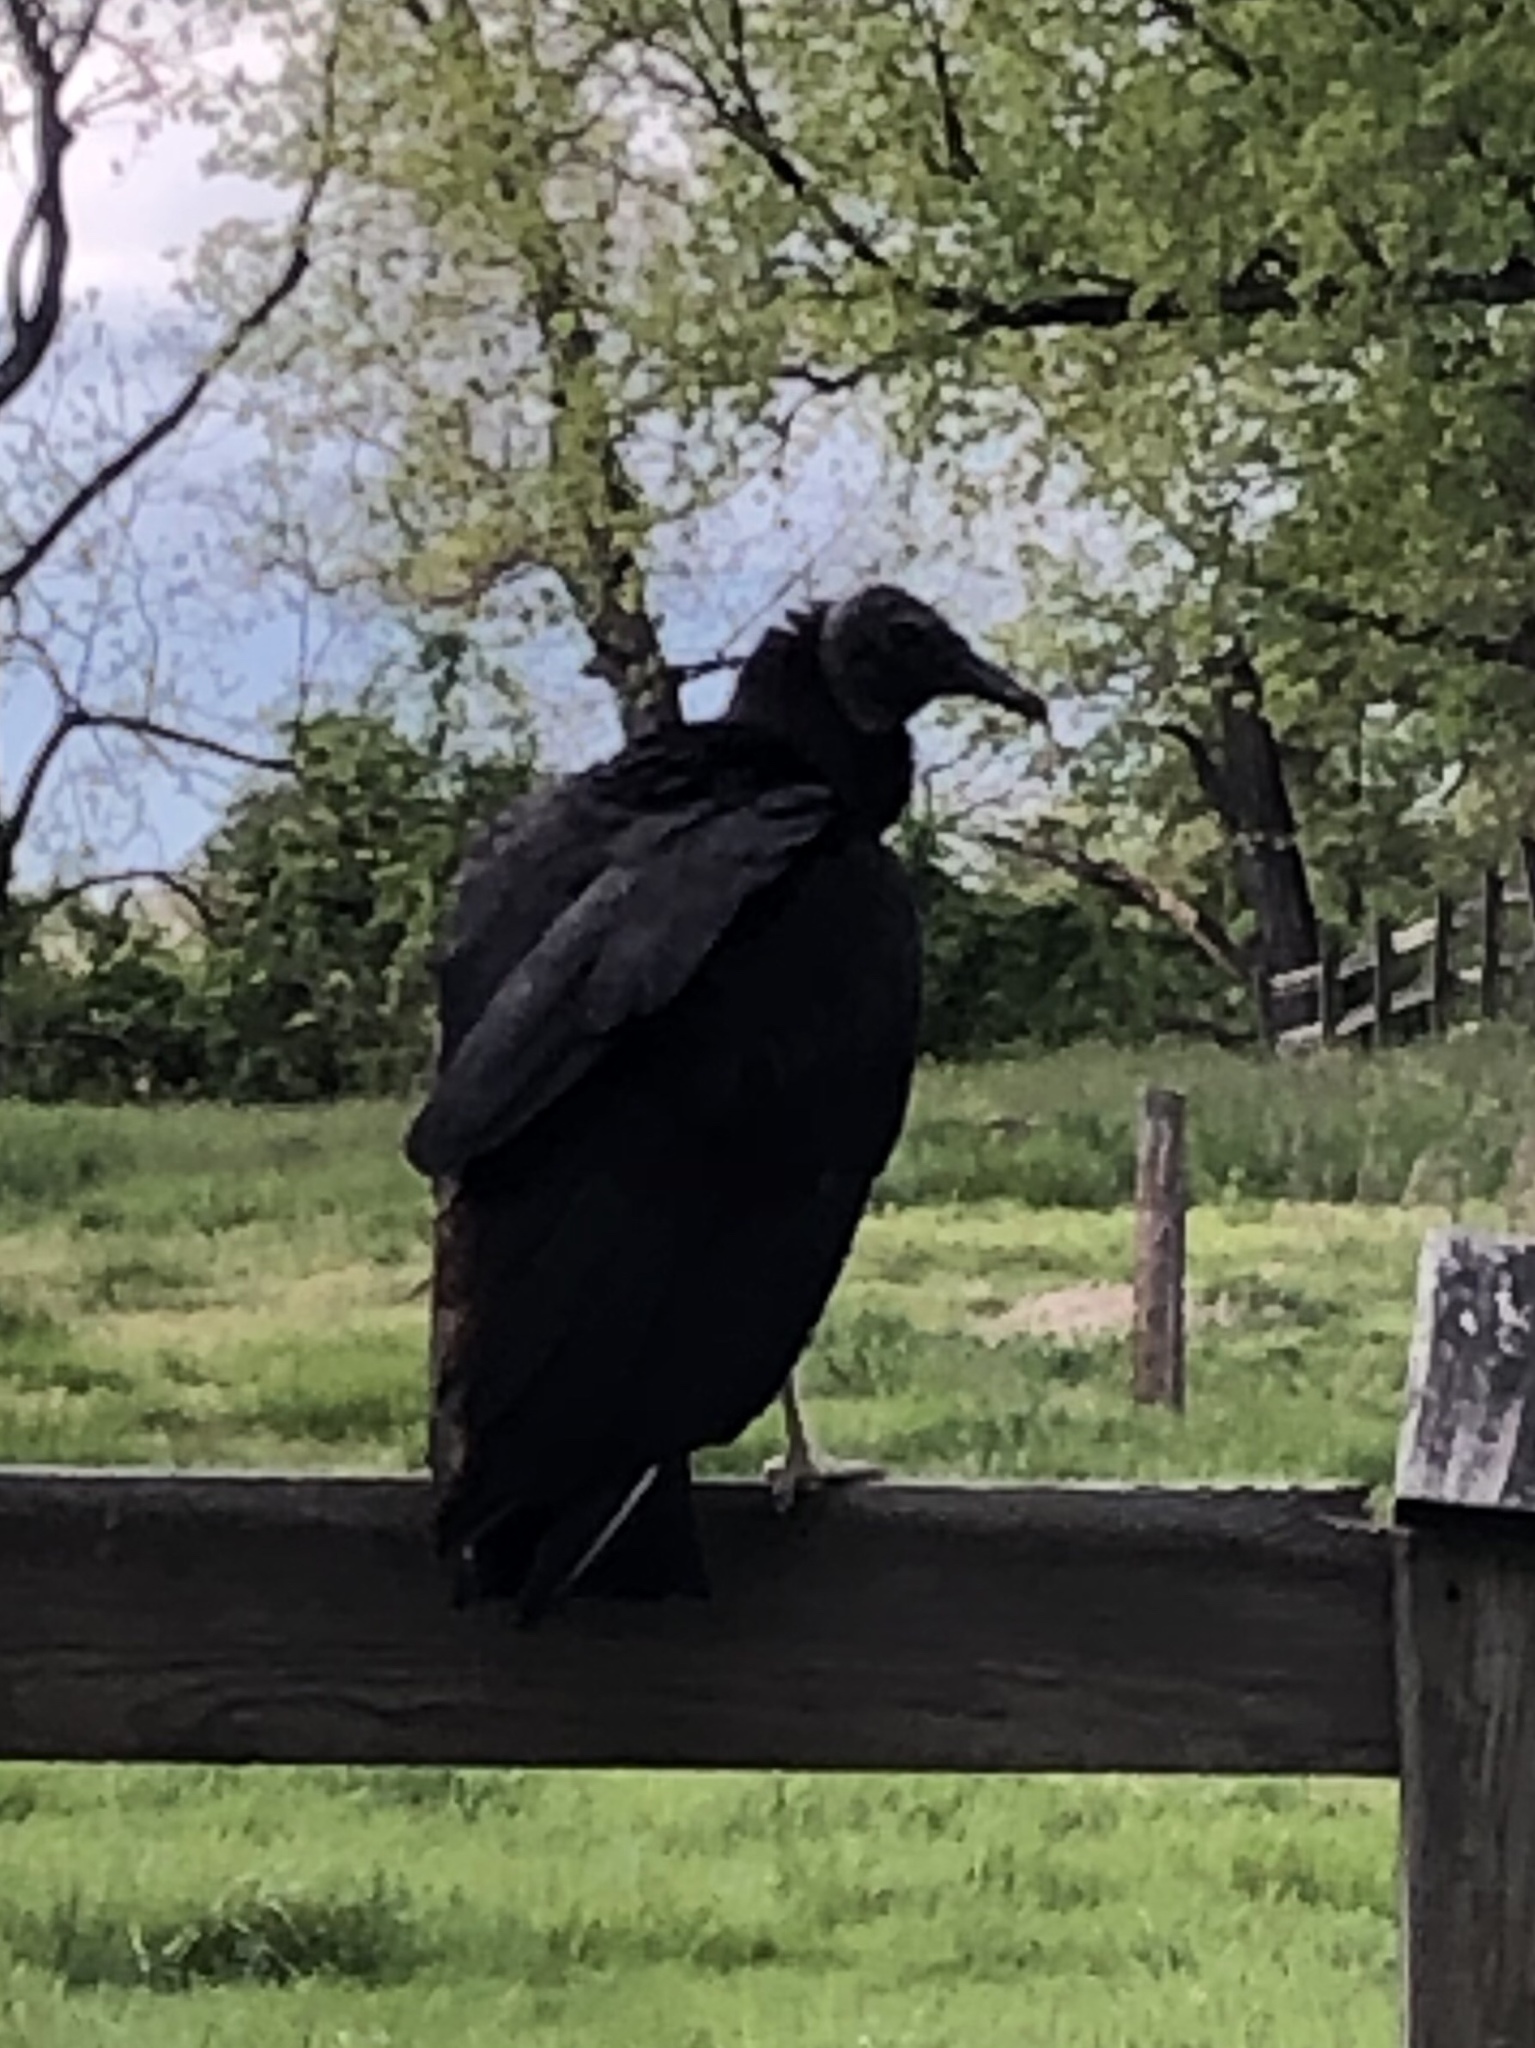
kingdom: Animalia
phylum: Chordata
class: Aves
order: Accipitriformes
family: Cathartidae
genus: Coragyps
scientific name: Coragyps atratus
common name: Black vulture
